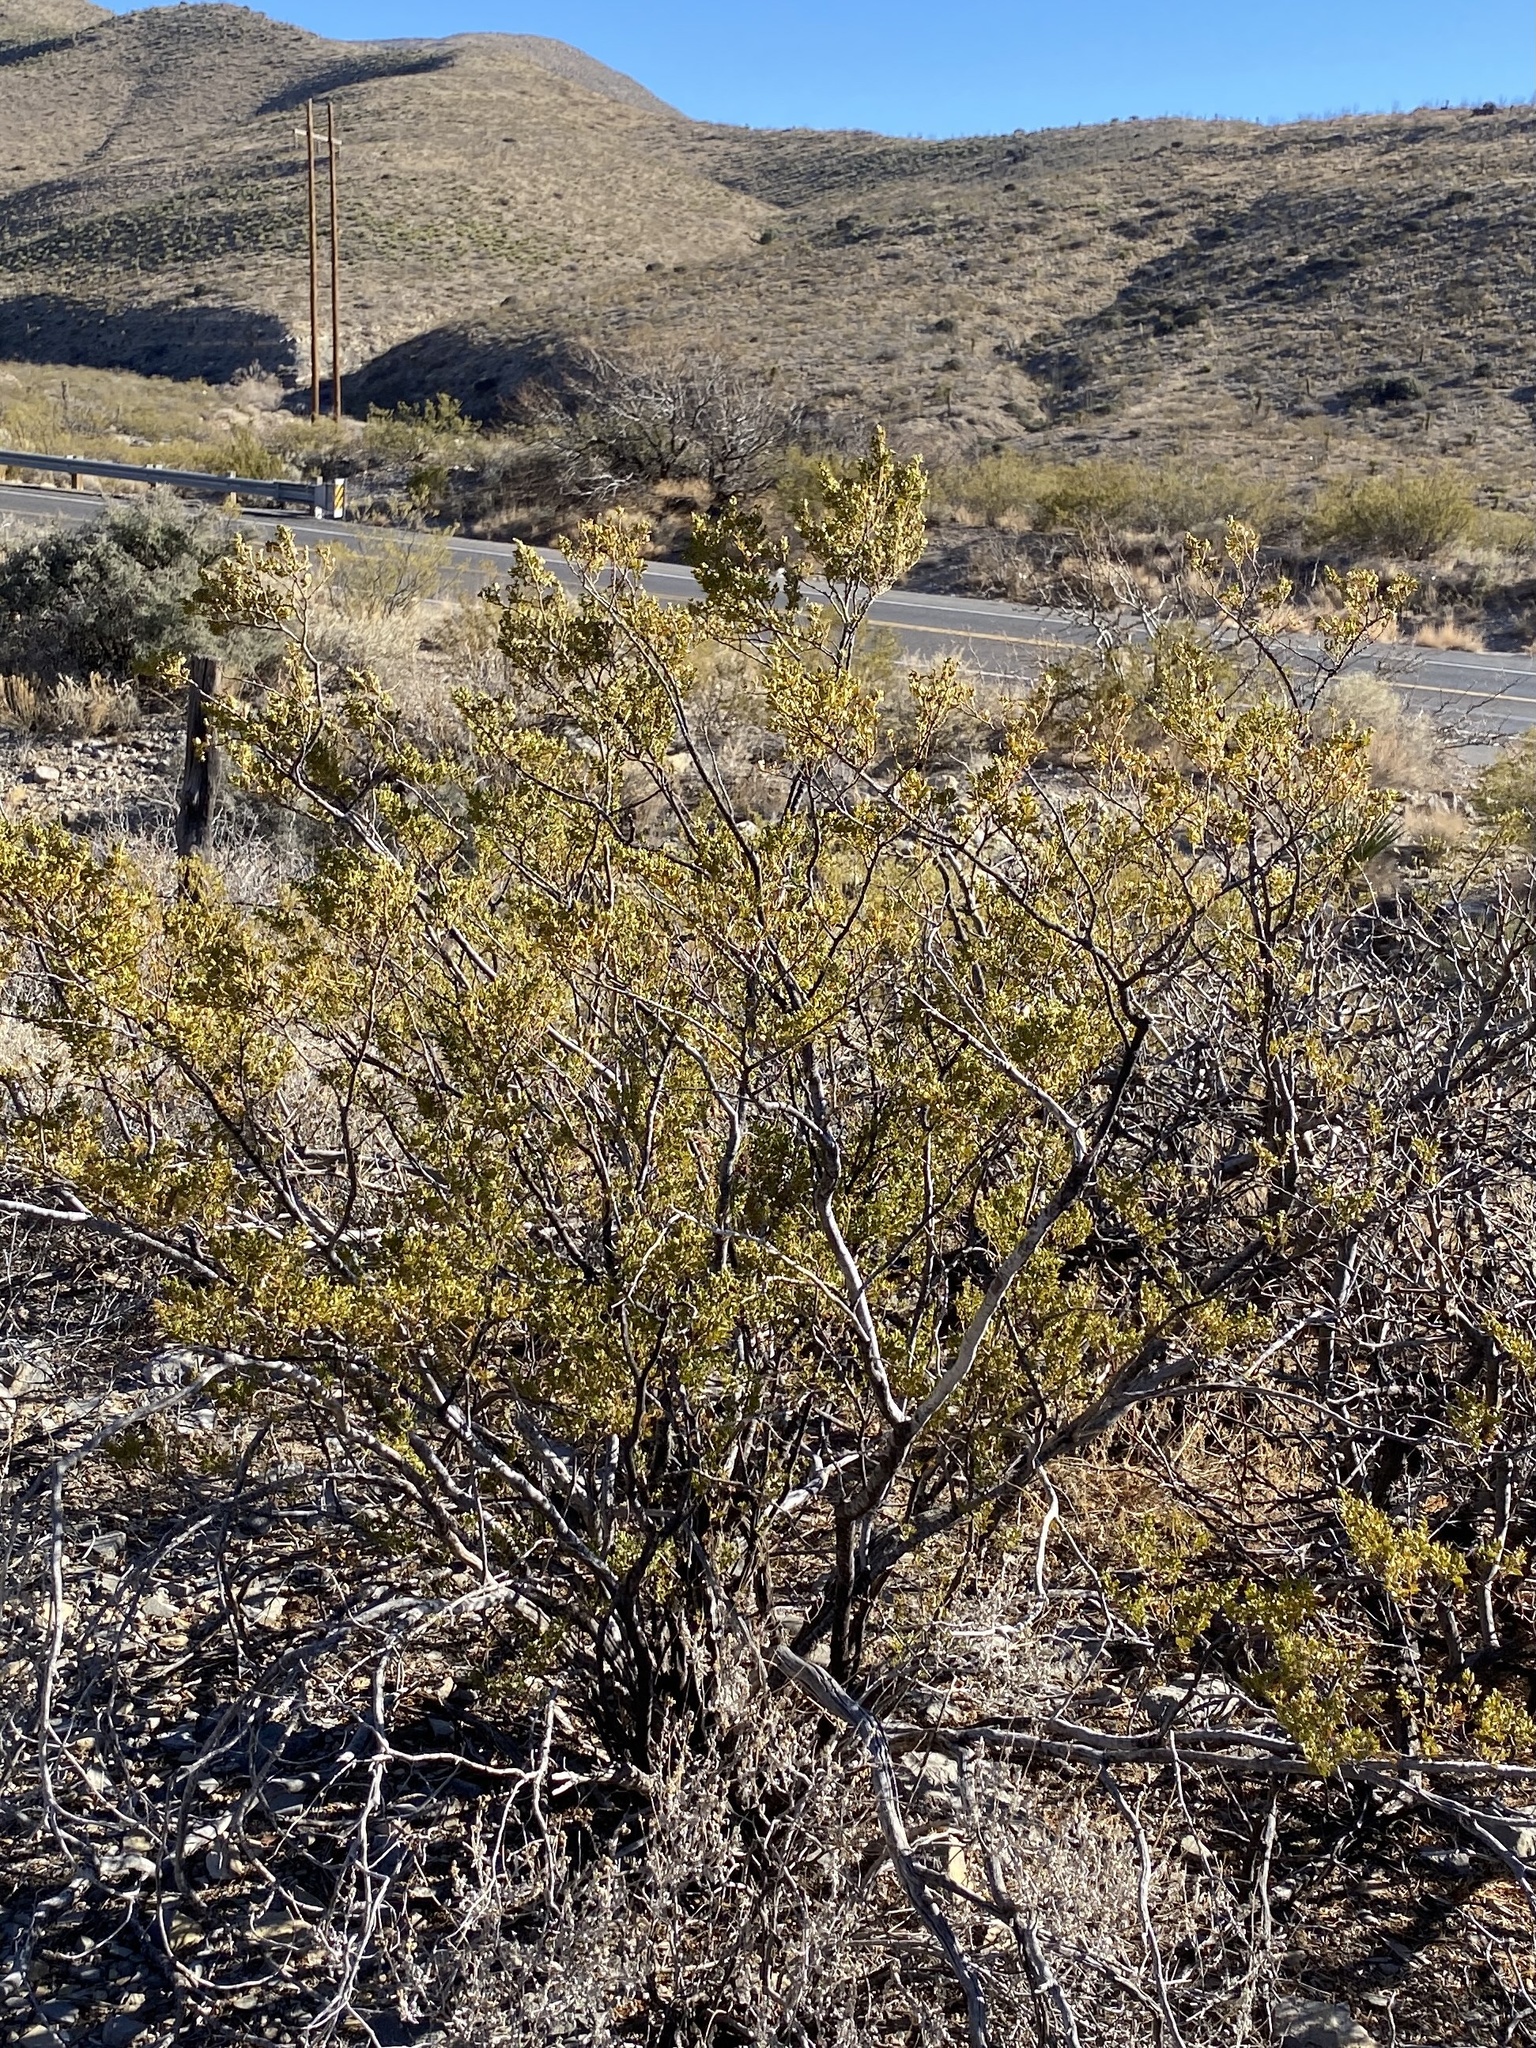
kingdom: Plantae
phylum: Tracheophyta
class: Magnoliopsida
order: Zygophyllales
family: Zygophyllaceae
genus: Larrea
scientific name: Larrea tridentata
